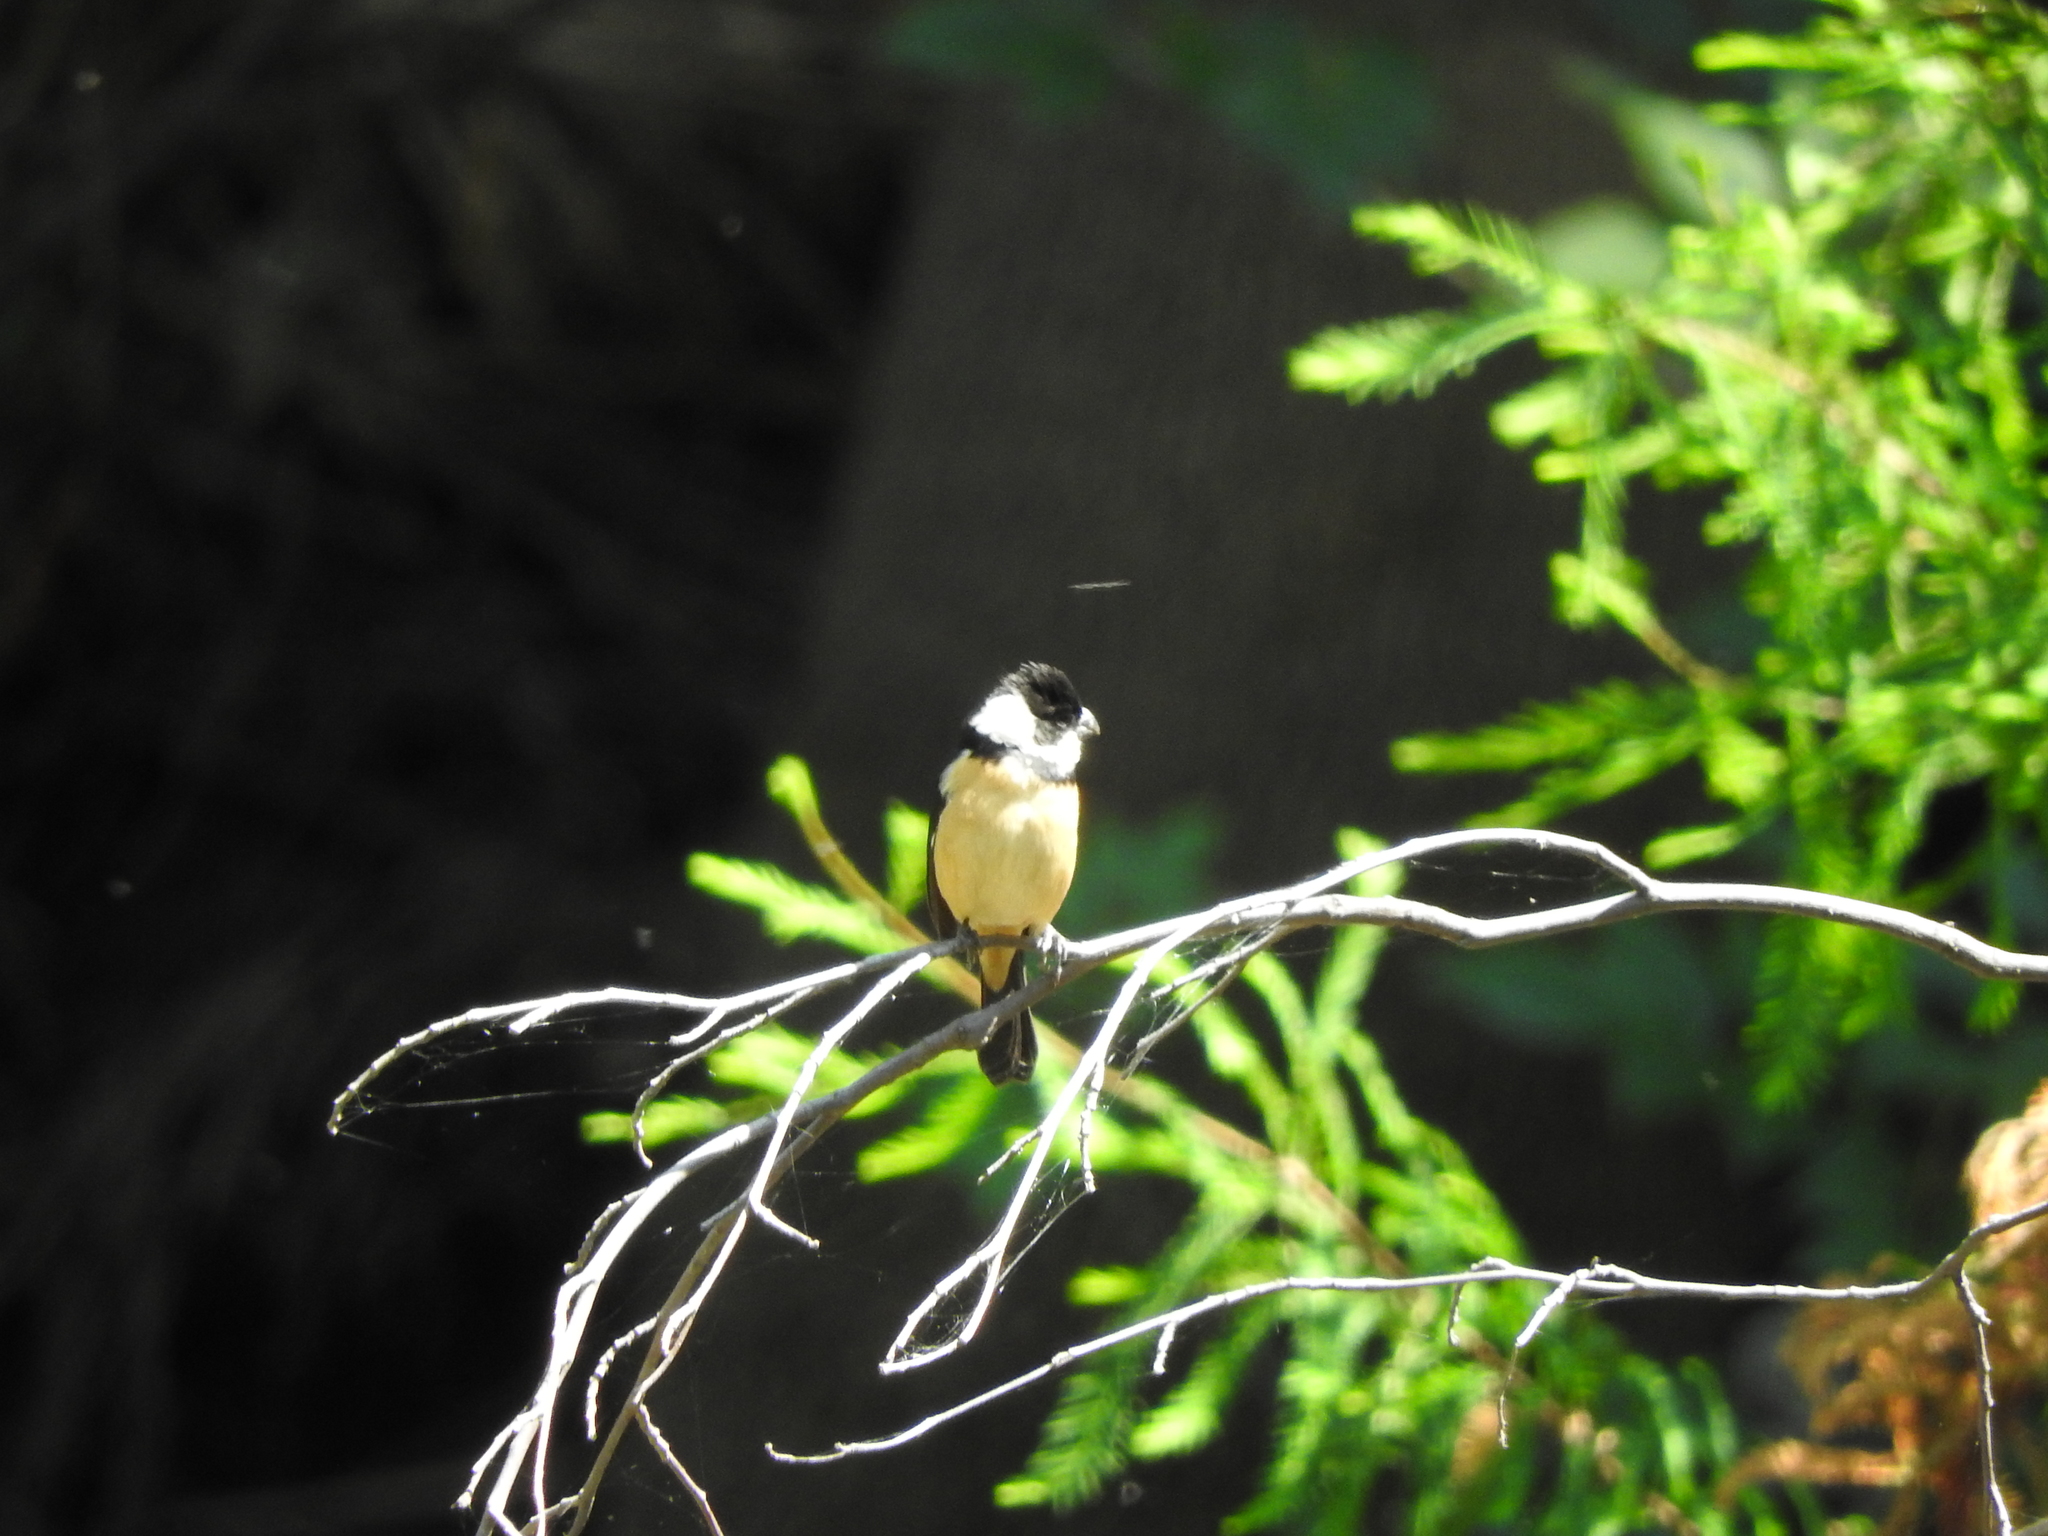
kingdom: Animalia
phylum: Chordata
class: Aves
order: Passeriformes
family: Thraupidae
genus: Sporophila
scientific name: Sporophila torqueola
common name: White-collared seedeater
